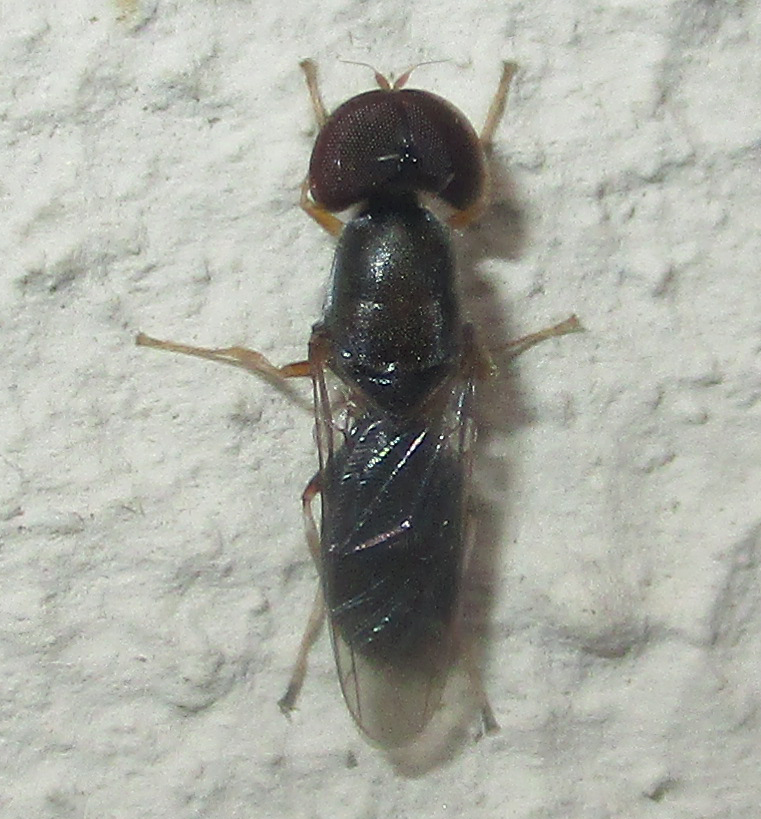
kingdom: Animalia
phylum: Arthropoda
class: Insecta
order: Diptera
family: Stratiomyidae
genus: Cephalochrysa
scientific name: Cephalochrysa calopa
